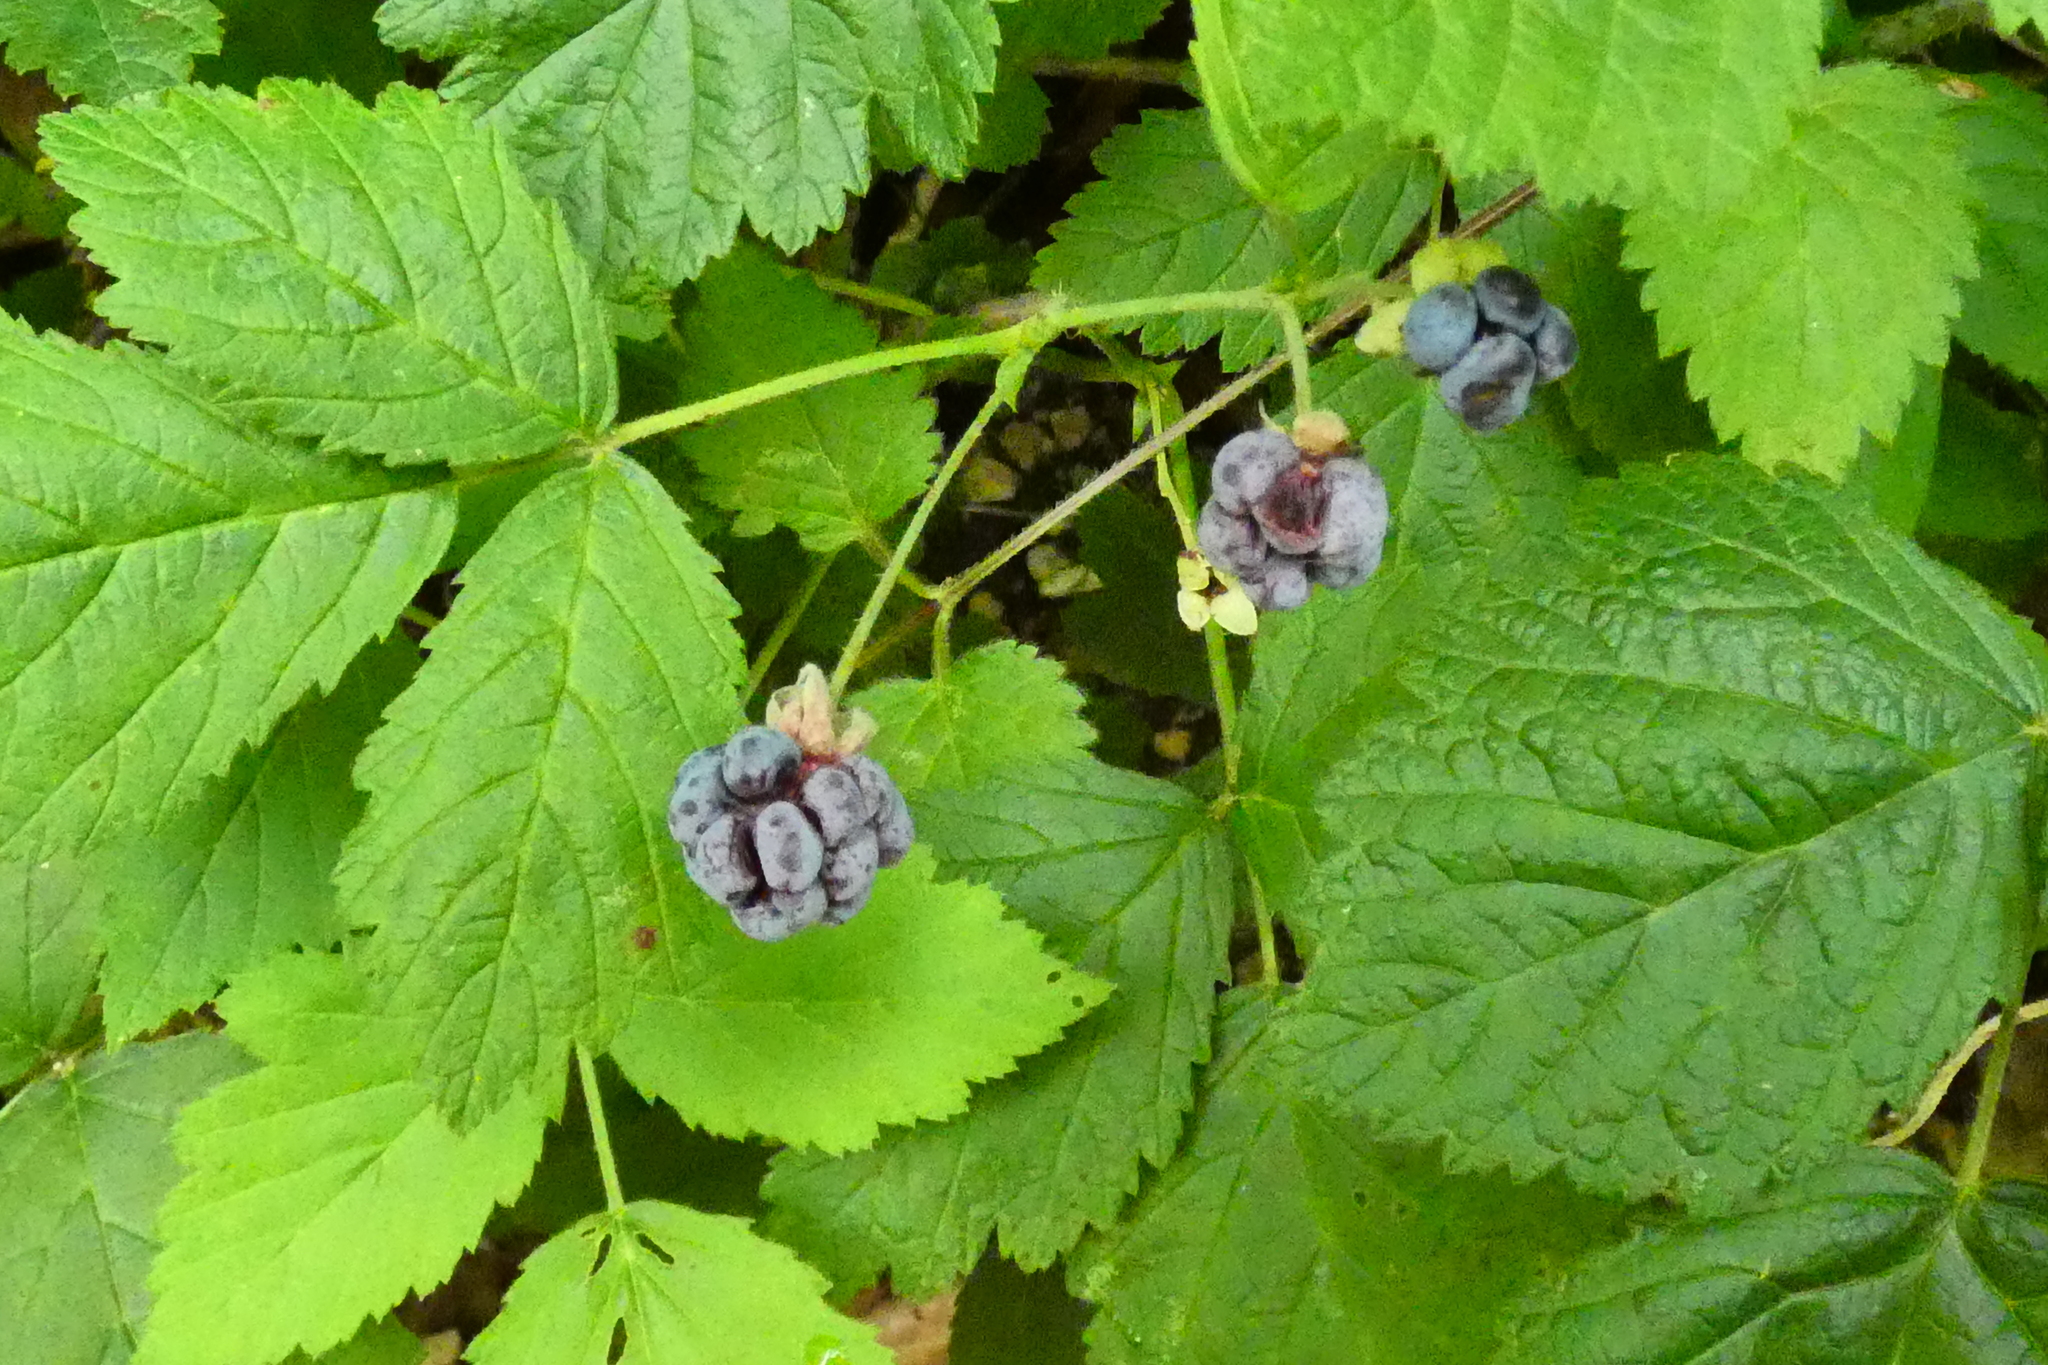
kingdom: Plantae
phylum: Tracheophyta
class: Magnoliopsida
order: Rosales
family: Rosaceae
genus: Rubus
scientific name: Rubus caesius
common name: Dewberry
